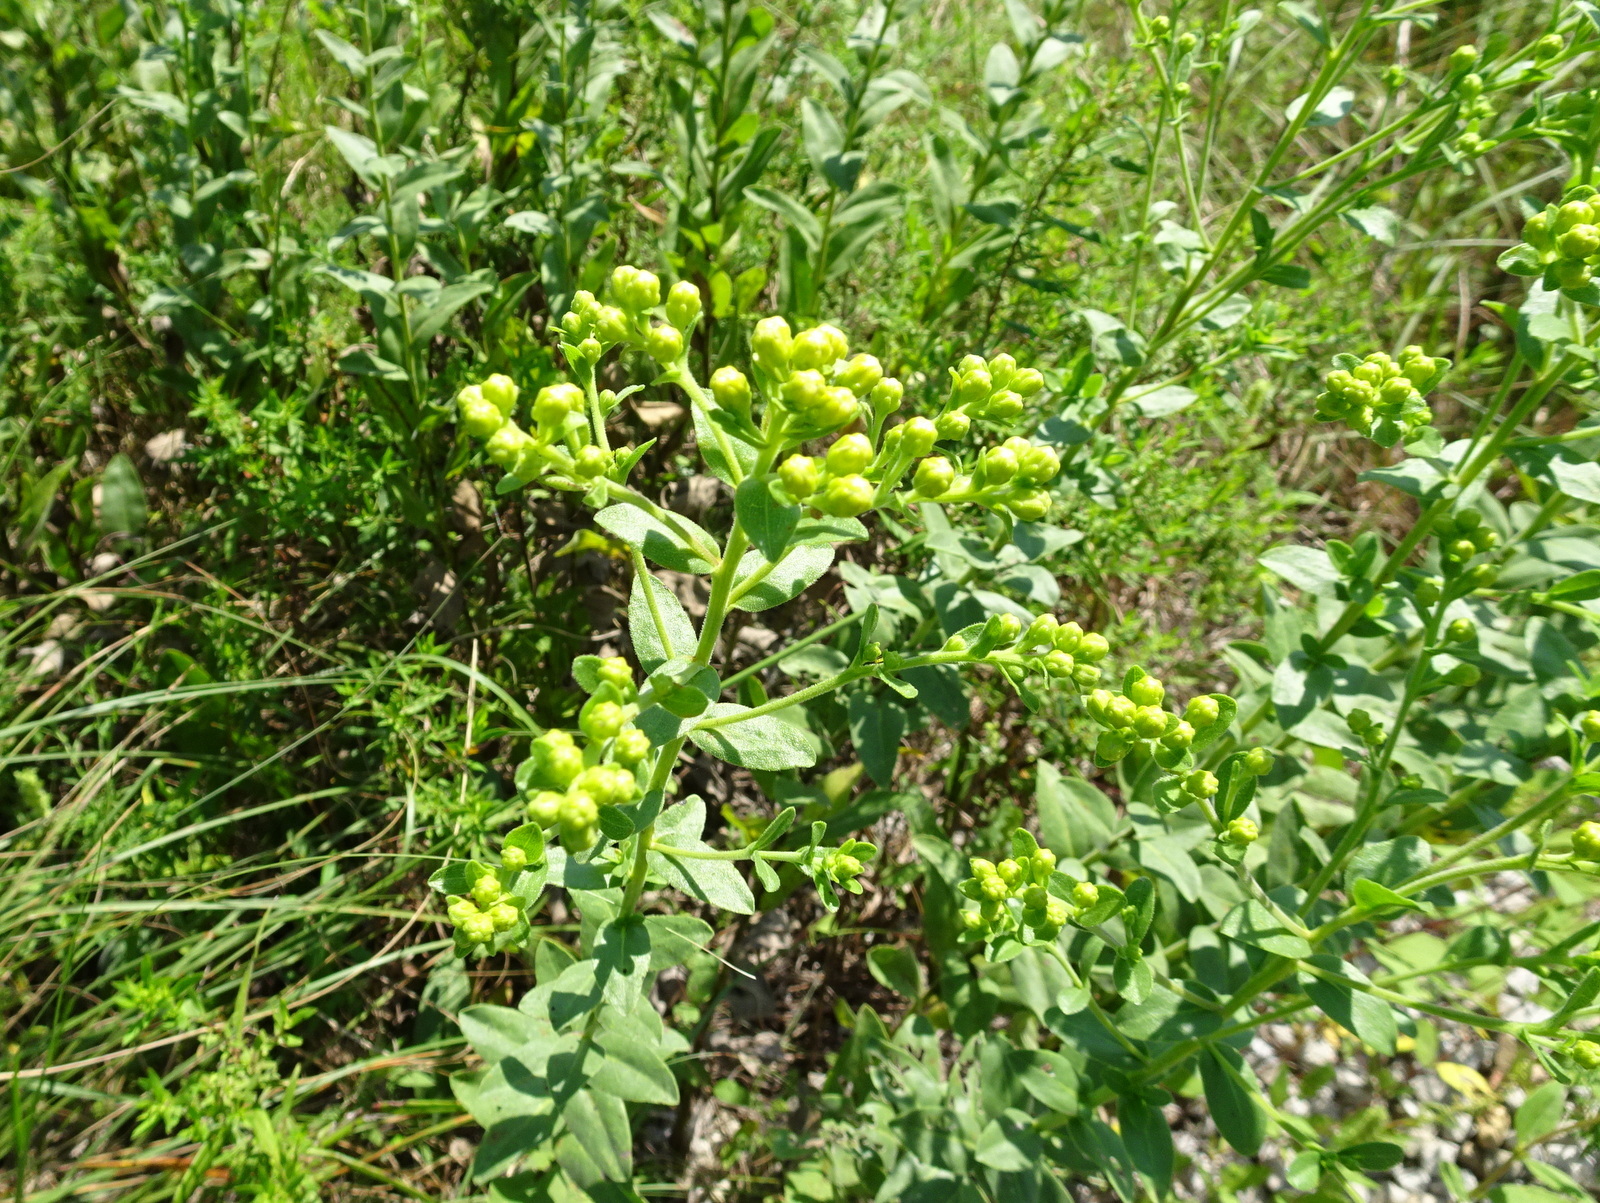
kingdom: Plantae
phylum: Tracheophyta
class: Magnoliopsida
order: Asterales
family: Asteraceae
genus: Solidago
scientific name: Solidago rigida
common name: Rigid goldenrod
